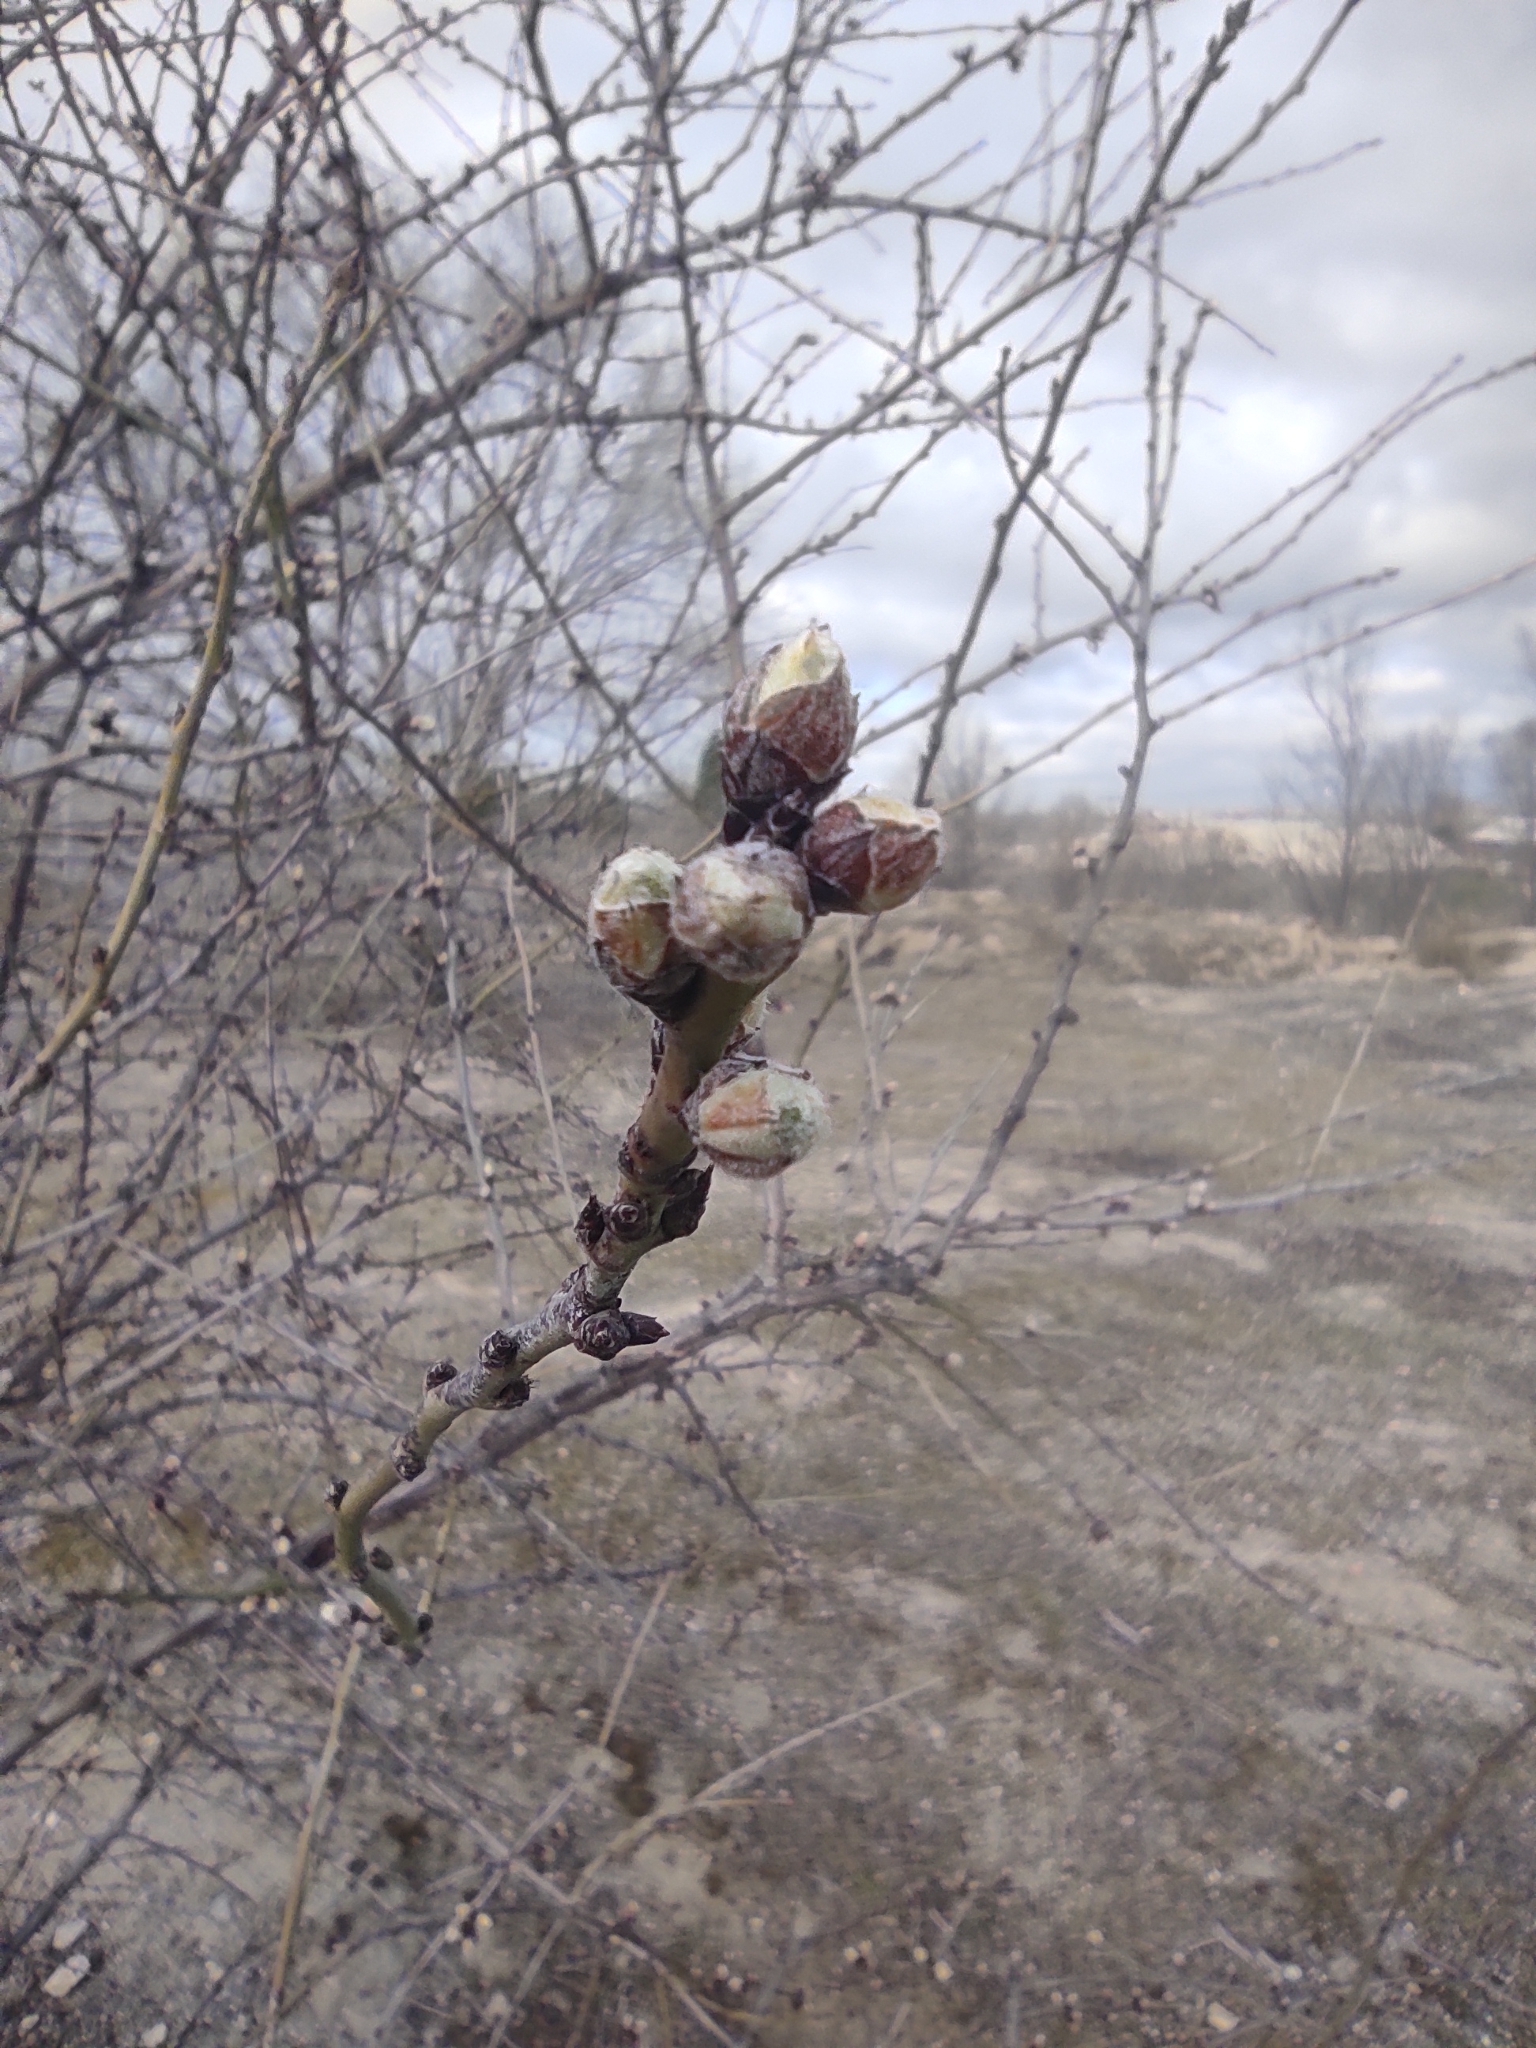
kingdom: Plantae
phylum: Tracheophyta
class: Magnoliopsida
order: Rosales
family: Rosaceae
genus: Prunus
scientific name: Prunus amygdalus
